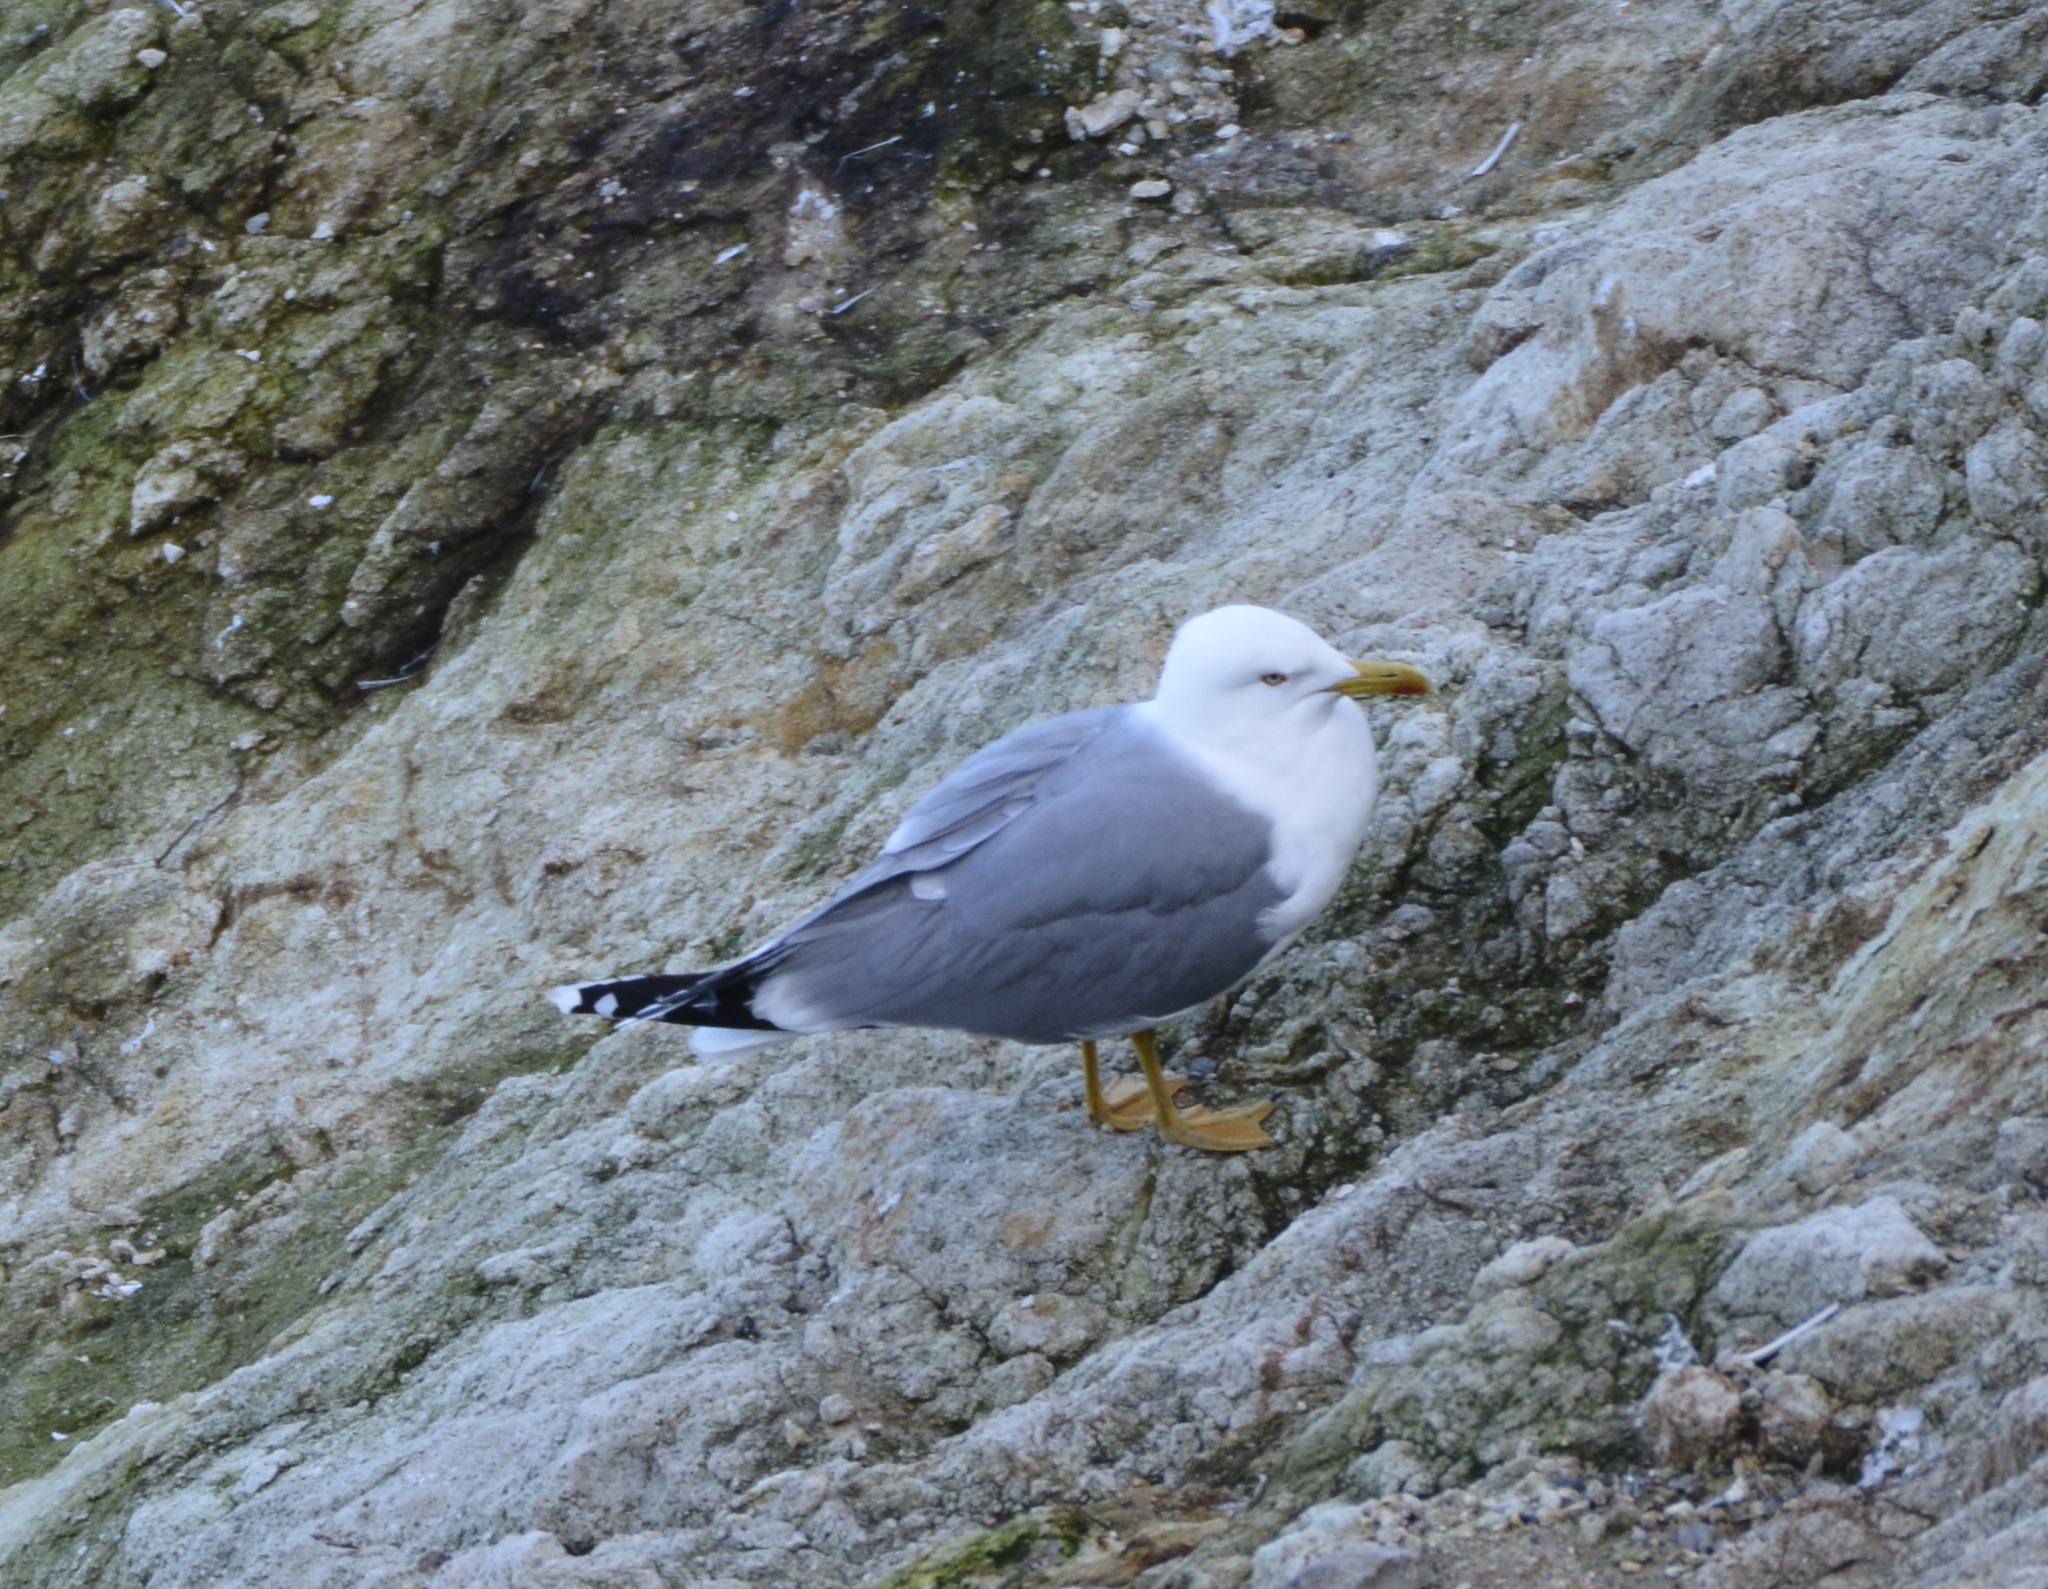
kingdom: Animalia
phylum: Chordata
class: Aves
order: Charadriiformes
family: Laridae
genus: Larus
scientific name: Larus michahellis
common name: Yellow-legged gull
